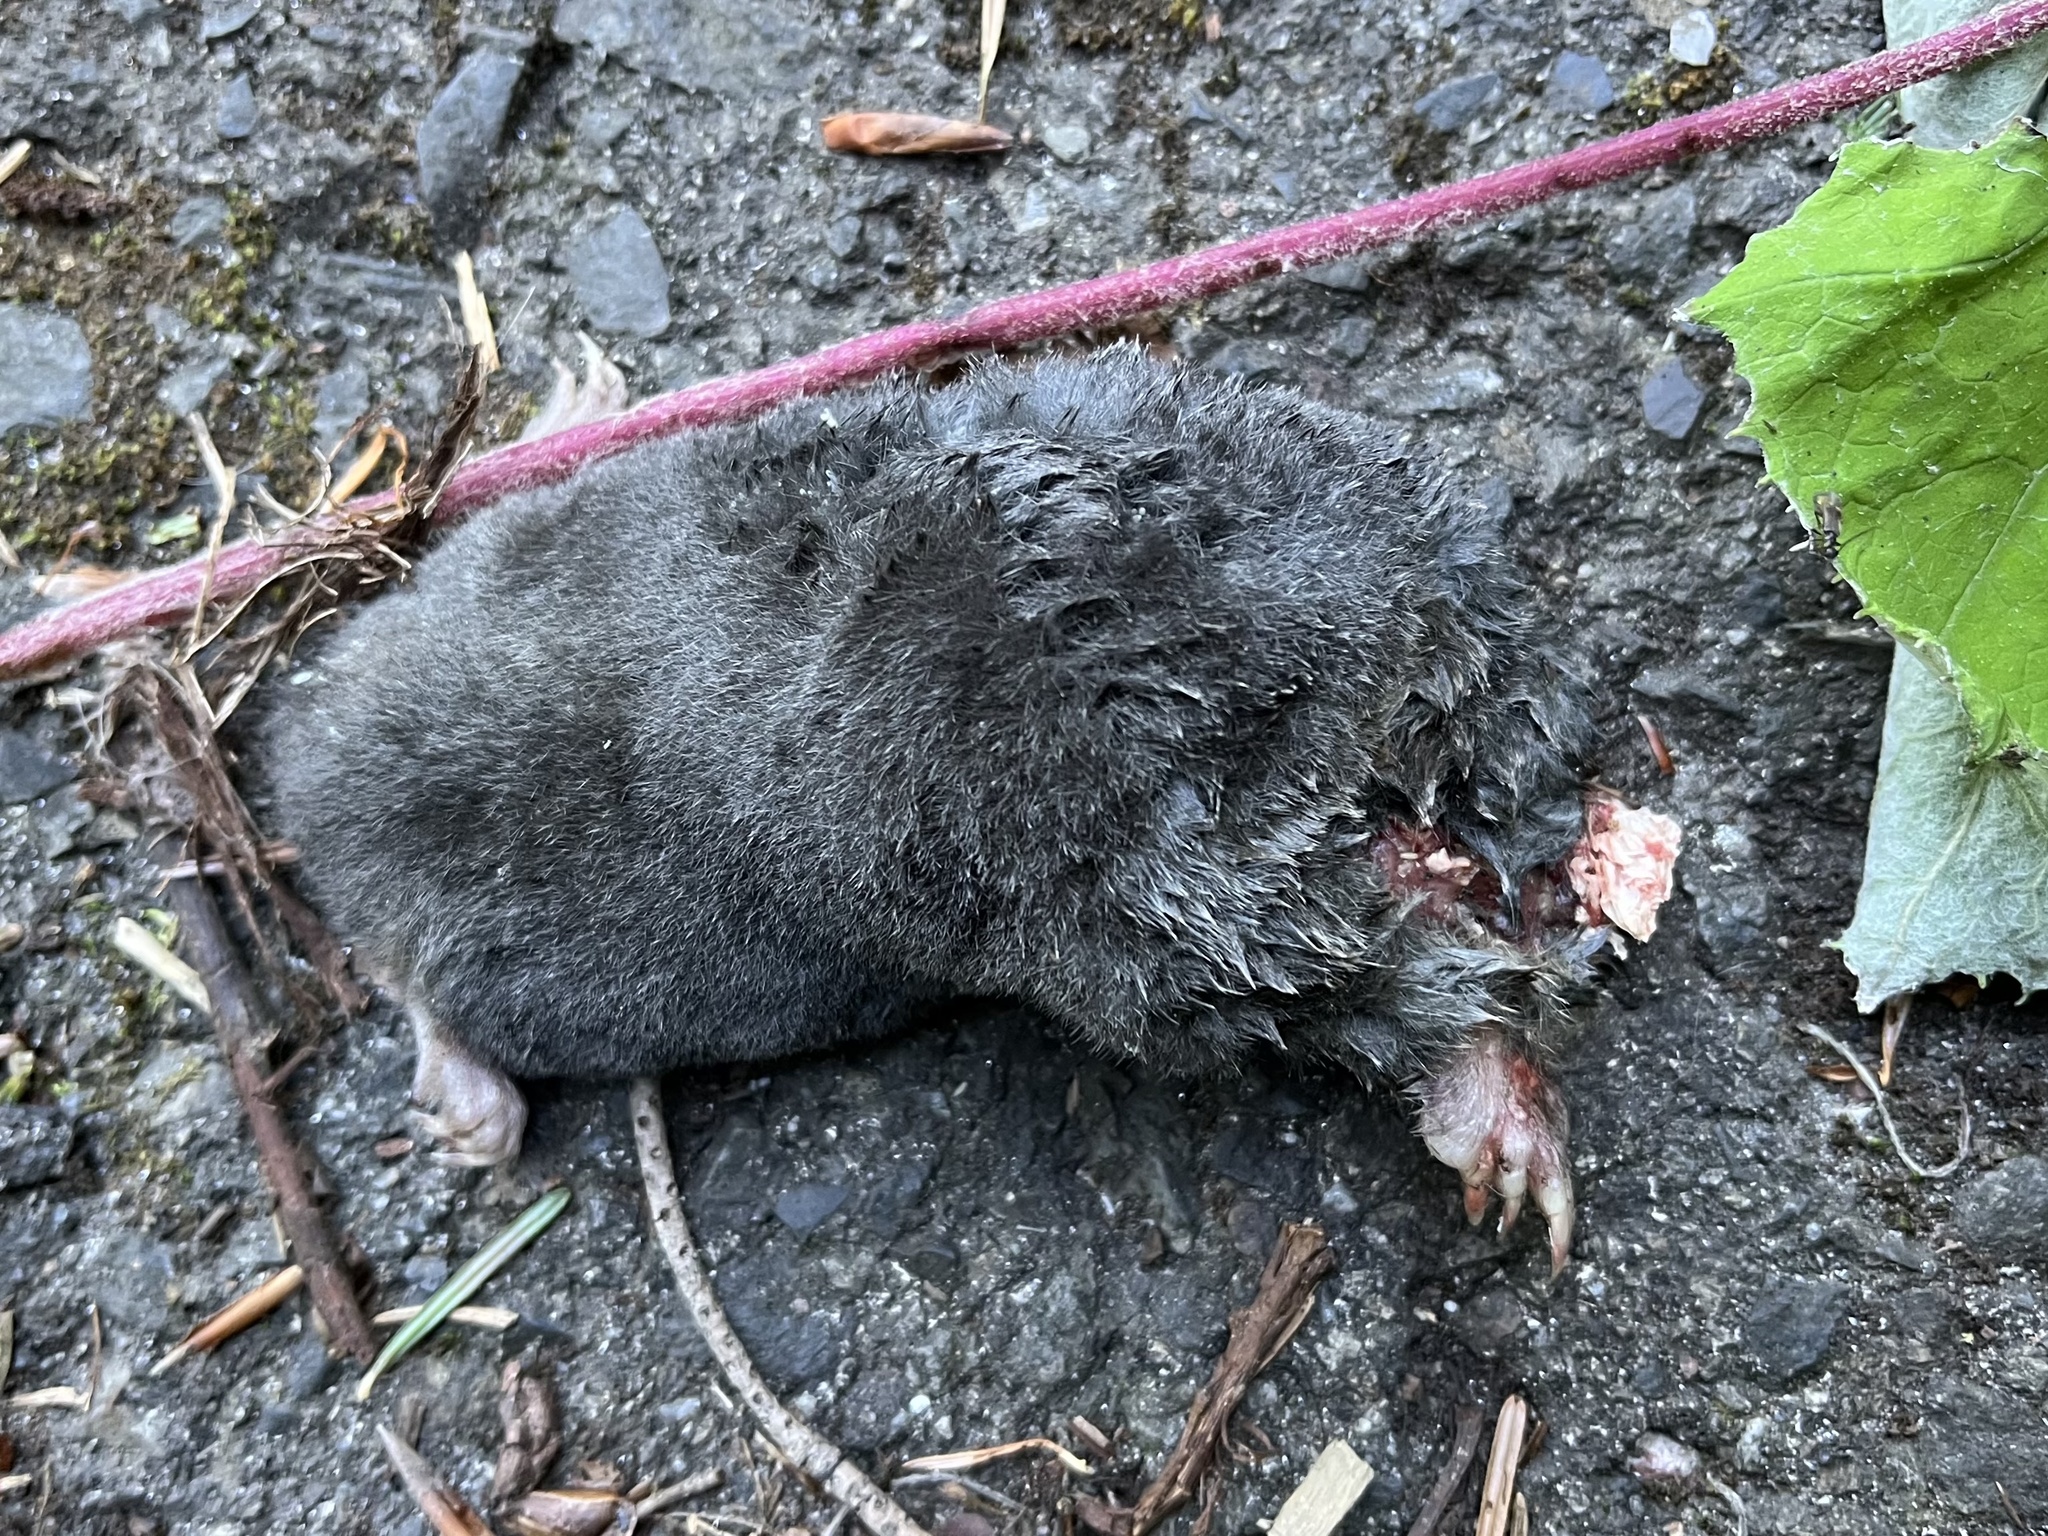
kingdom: Animalia
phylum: Chordata
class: Mammalia
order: Soricomorpha
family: Talpidae
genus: Talpa
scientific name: Talpa europaea
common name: European mole
